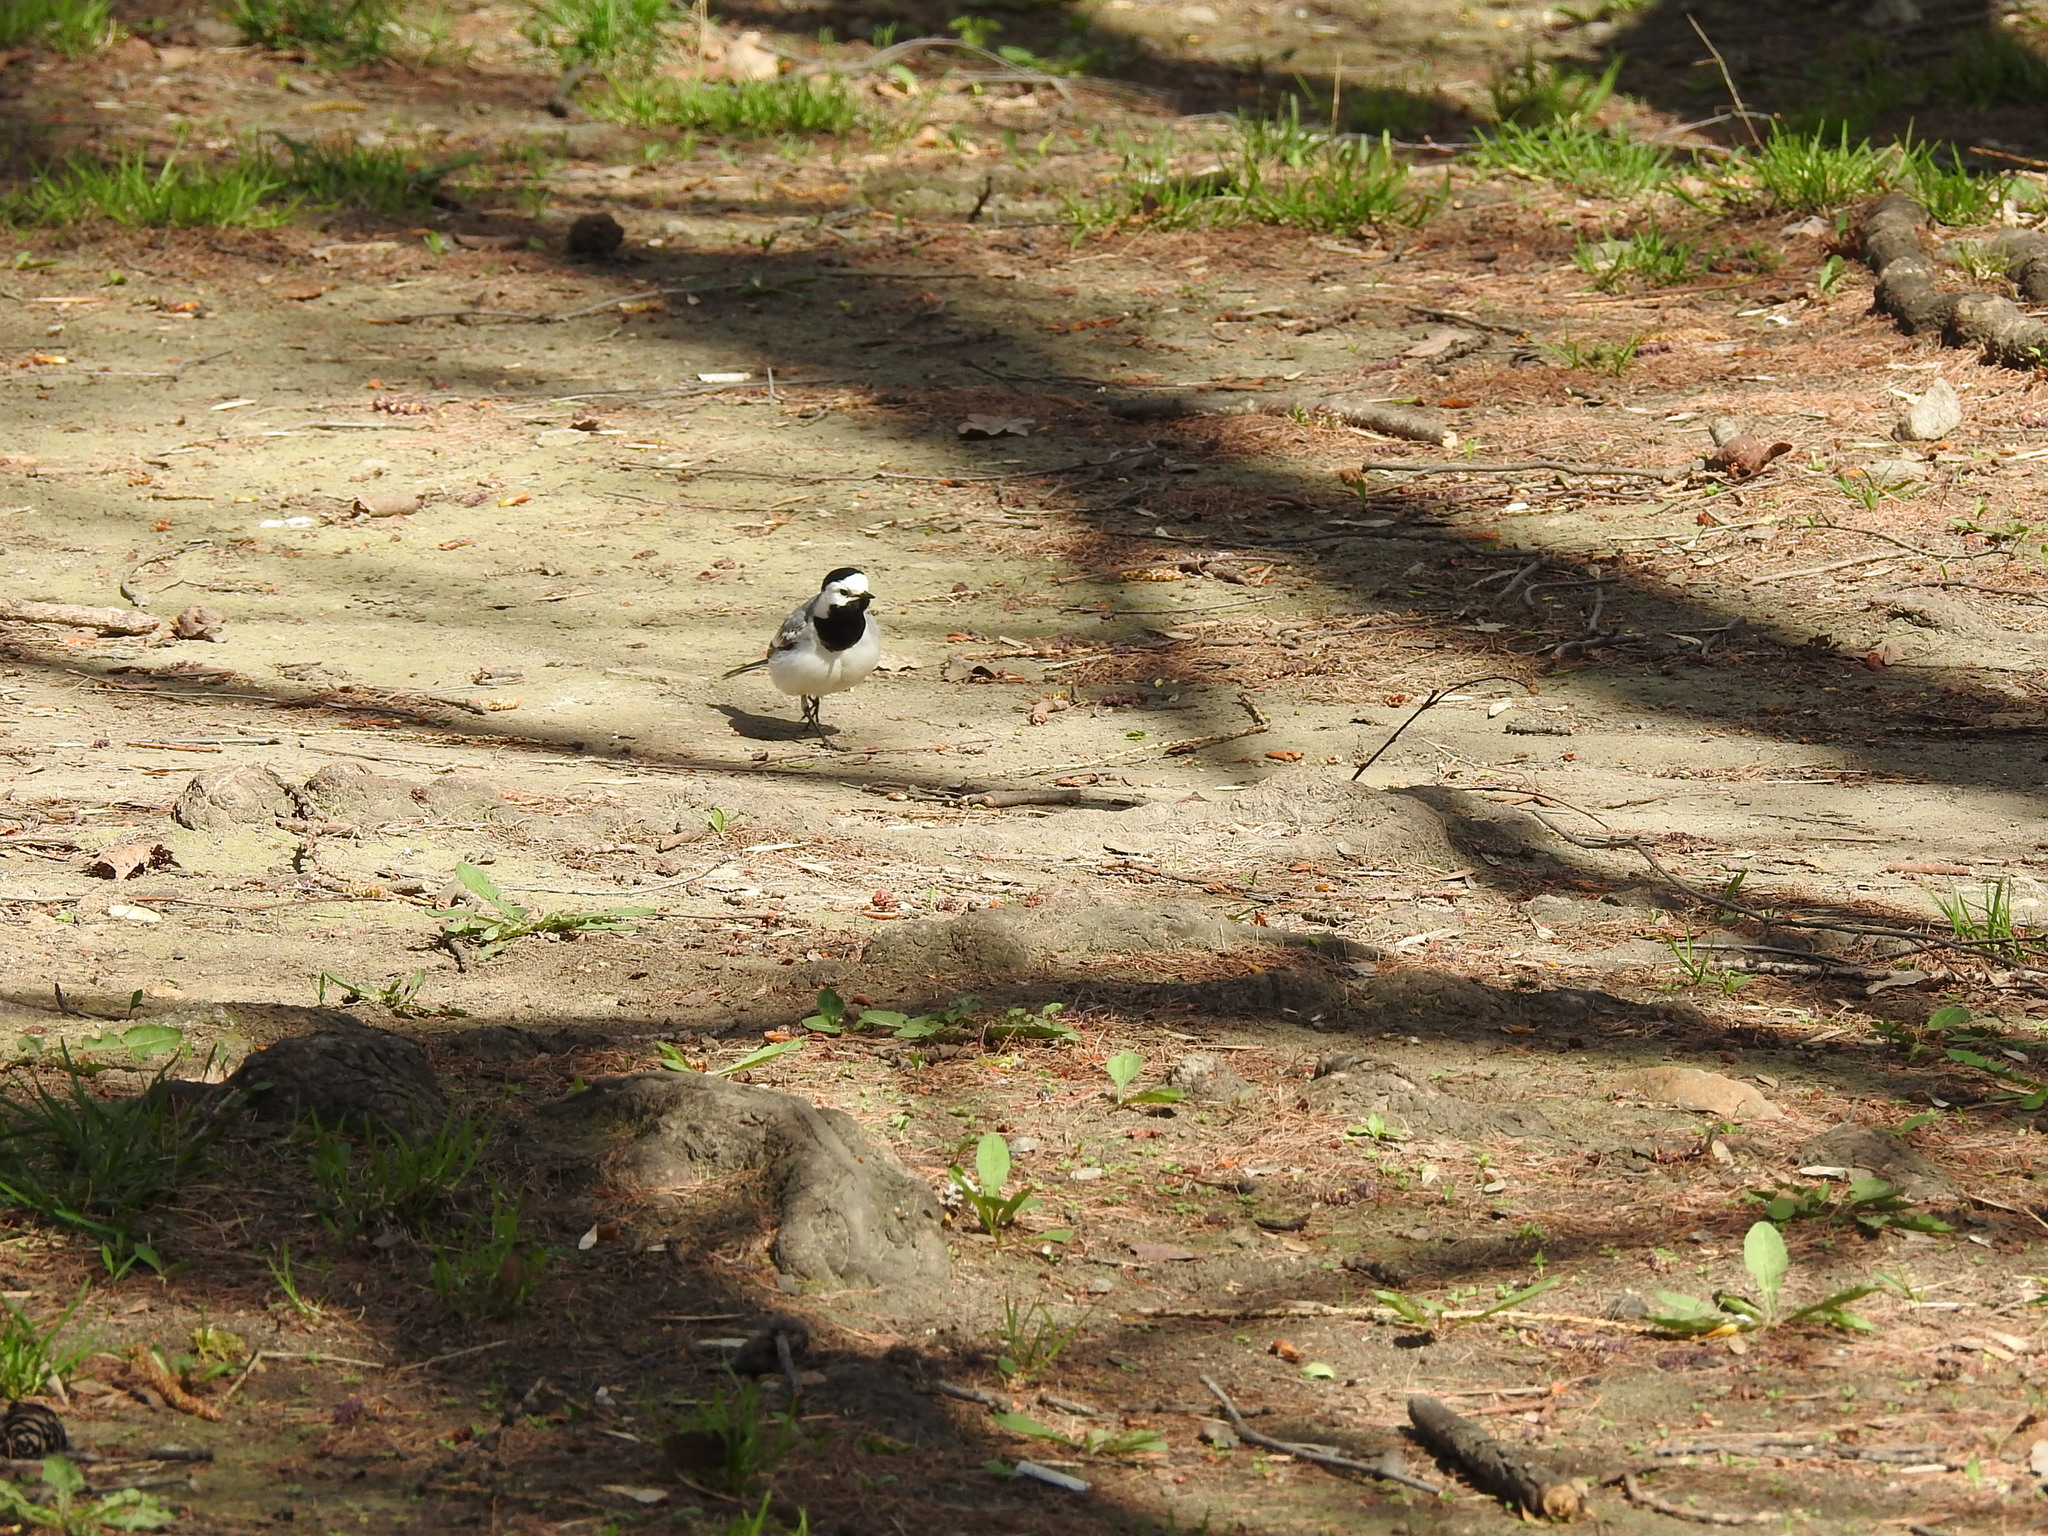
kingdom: Animalia
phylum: Chordata
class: Aves
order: Passeriformes
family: Motacillidae
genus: Motacilla
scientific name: Motacilla alba
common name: White wagtail
